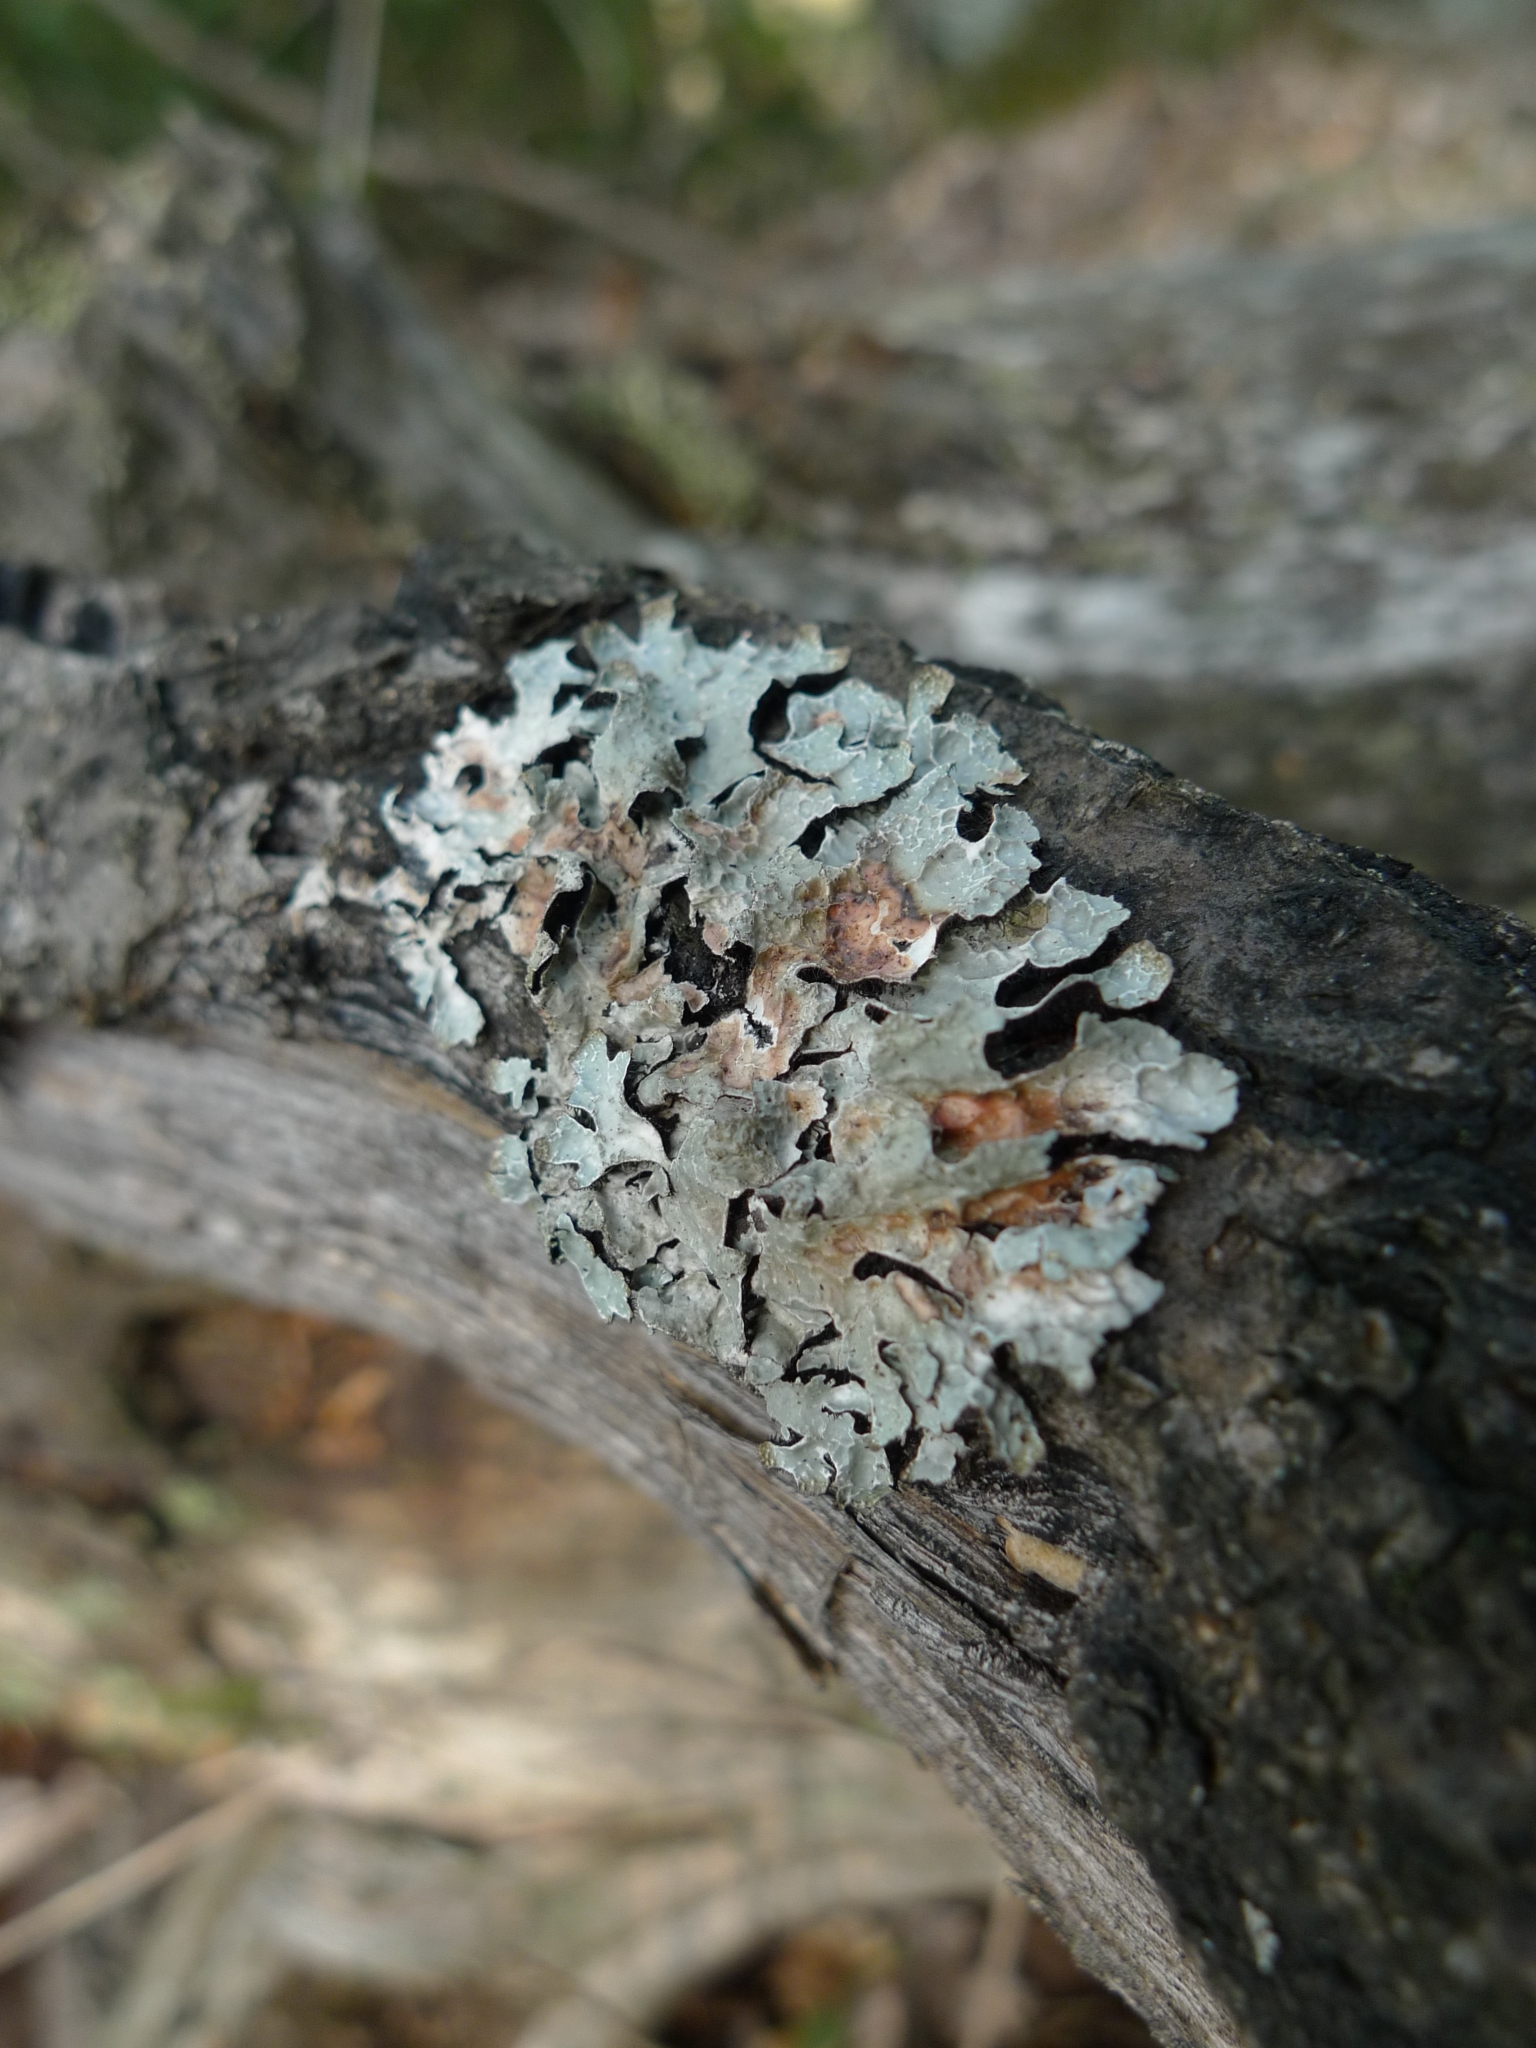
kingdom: Fungi
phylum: Ascomycota
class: Lecanoromycetes
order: Lecanorales
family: Parmeliaceae
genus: Parmelia
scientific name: Parmelia sulcata
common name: Netted shield lichen
